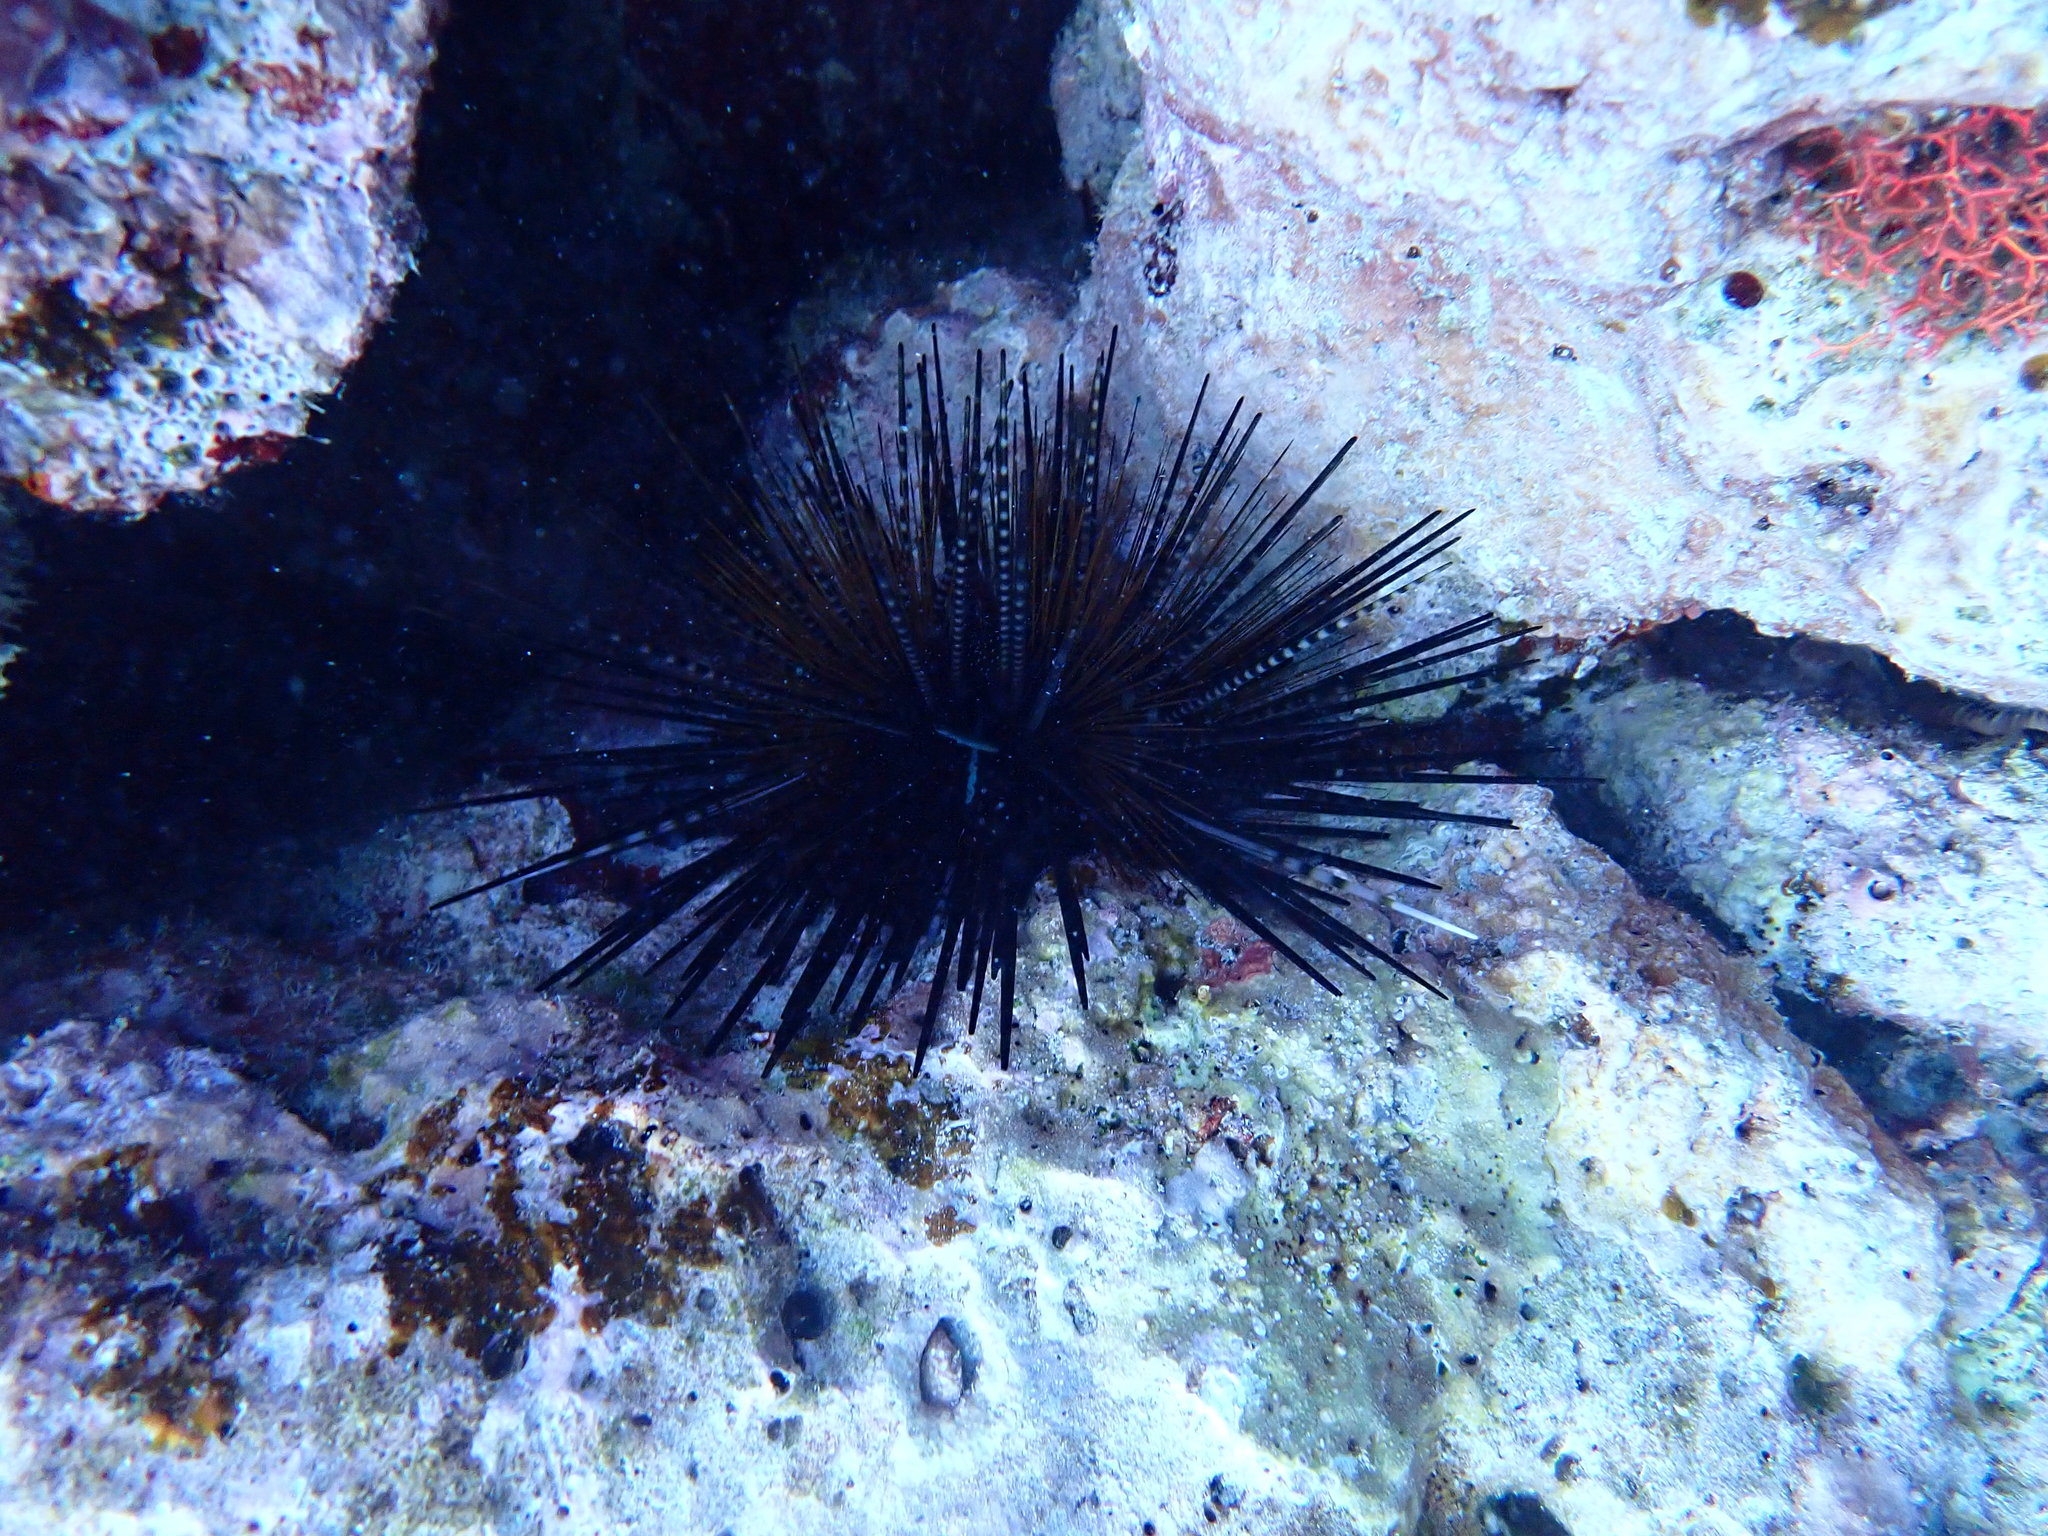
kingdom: Animalia
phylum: Echinodermata
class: Echinoidea
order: Diadematoida
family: Diadematidae
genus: Echinothrix
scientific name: Echinothrix calamaris
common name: Banded sea urchin
